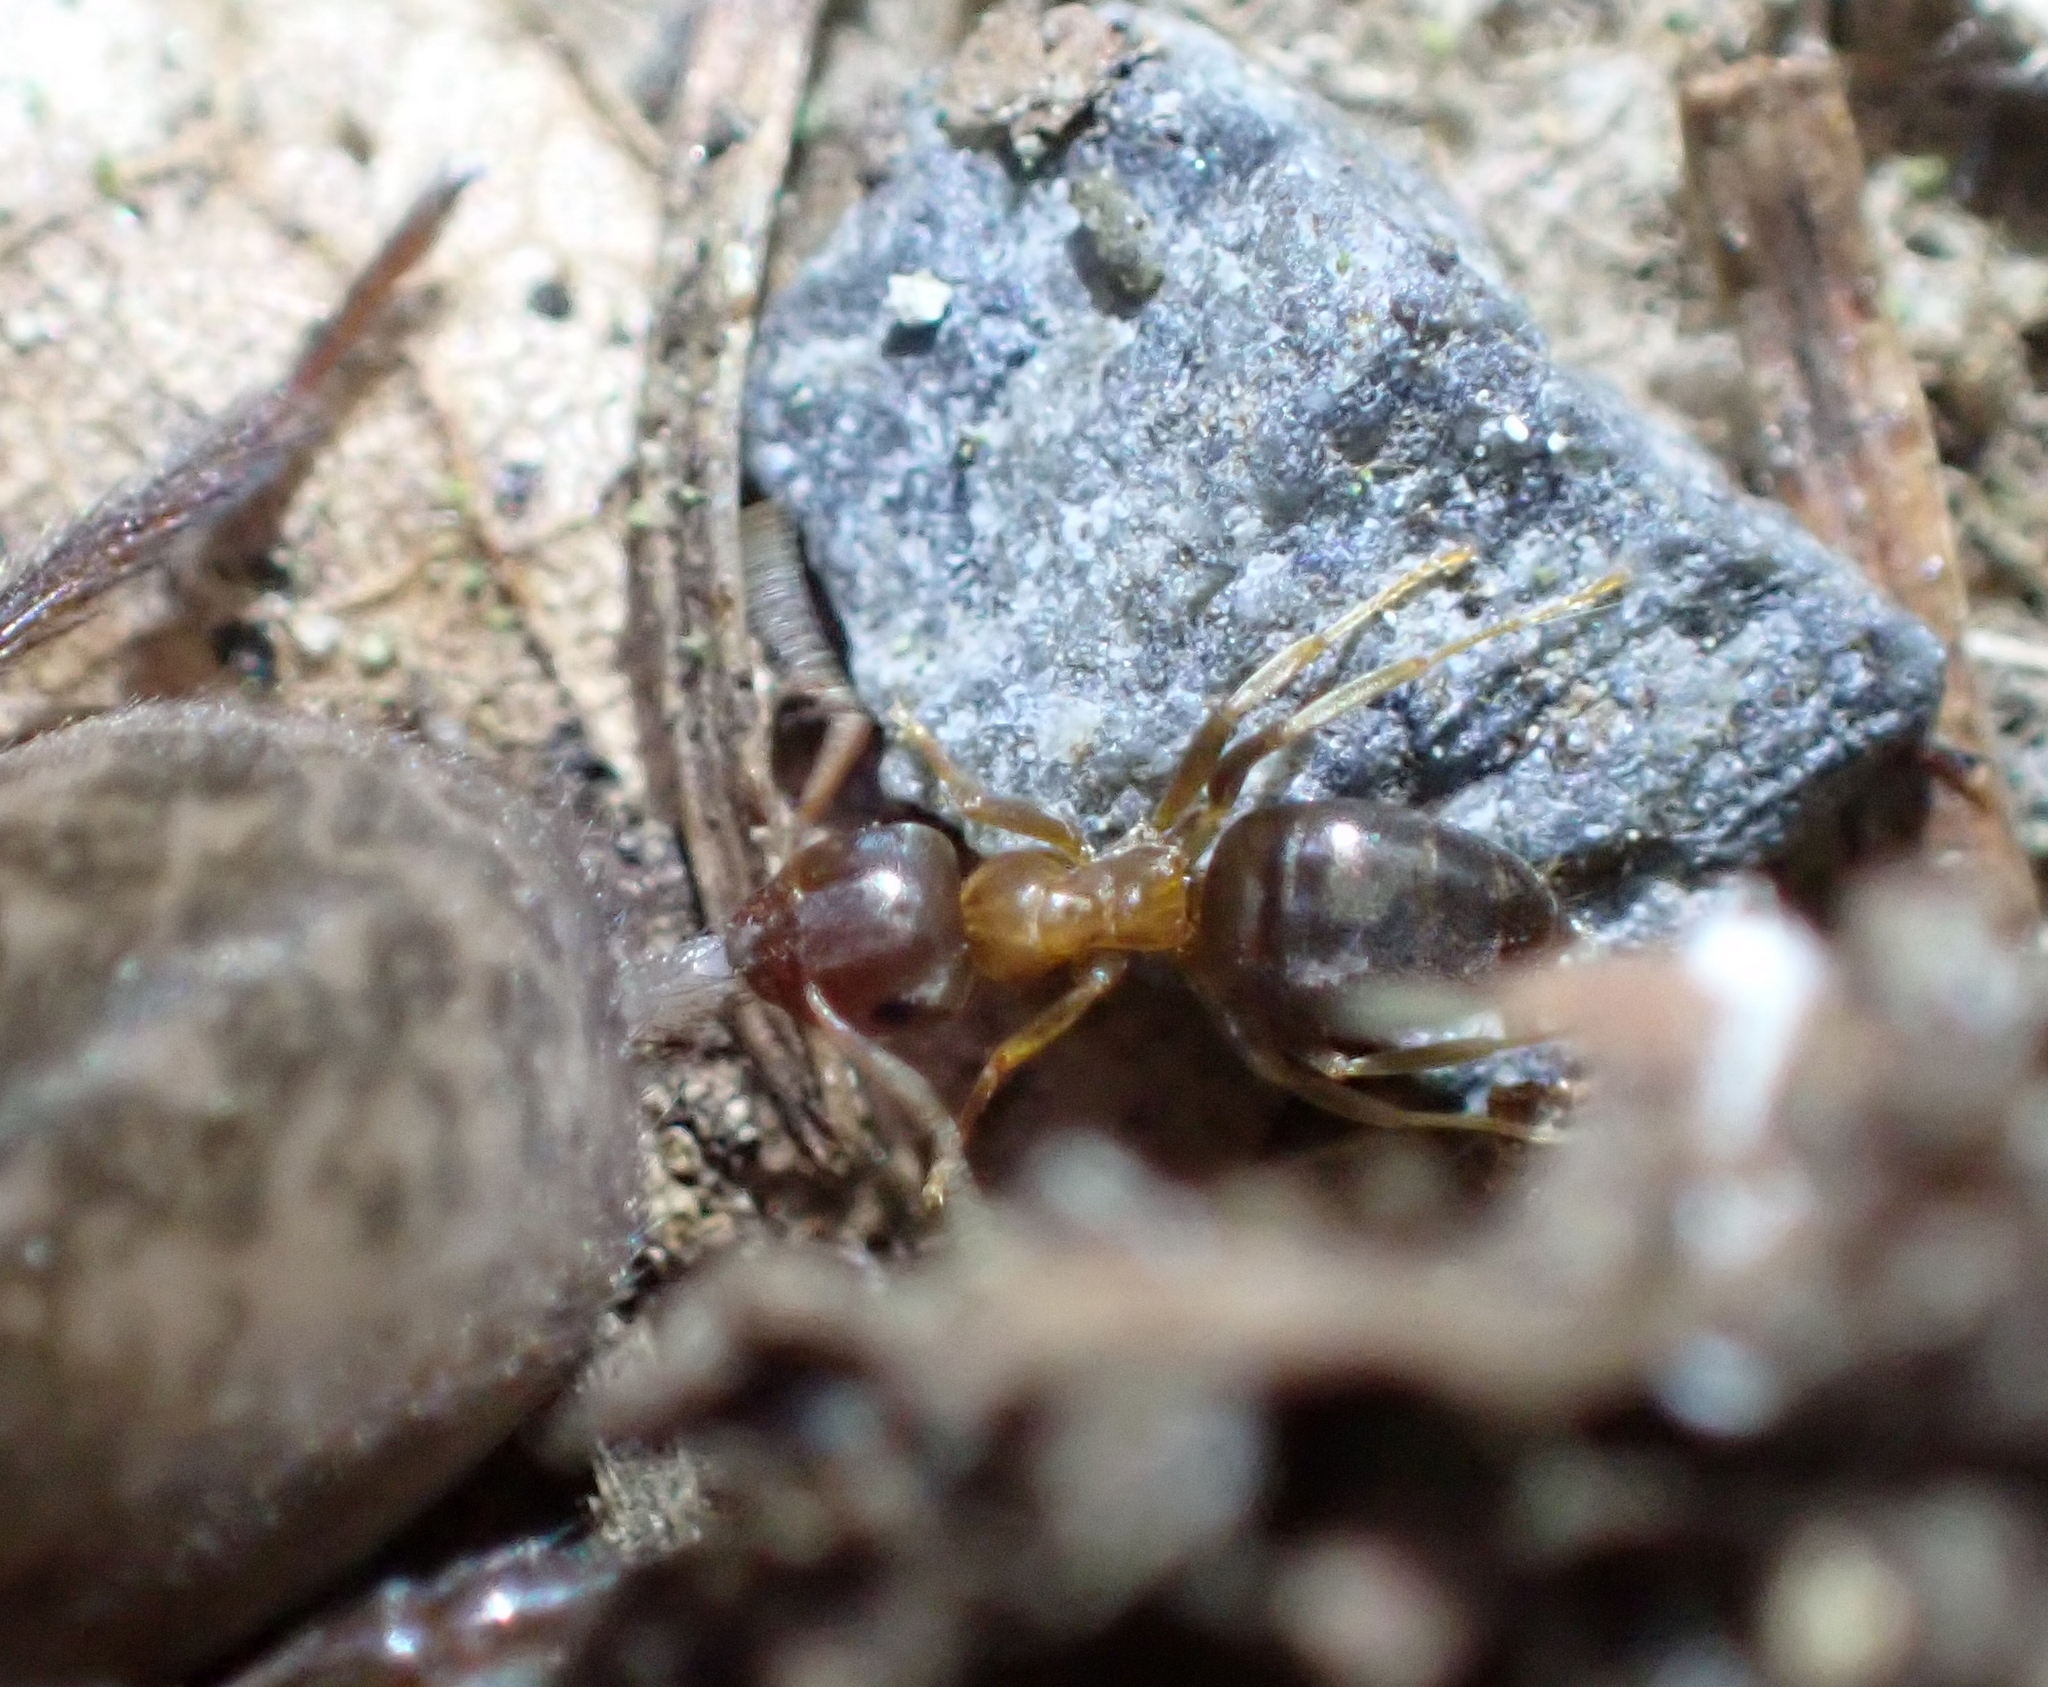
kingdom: Animalia
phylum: Arthropoda
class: Insecta
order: Hymenoptera
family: Formicidae
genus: Lasius
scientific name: Lasius brunneus
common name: Brown ant
